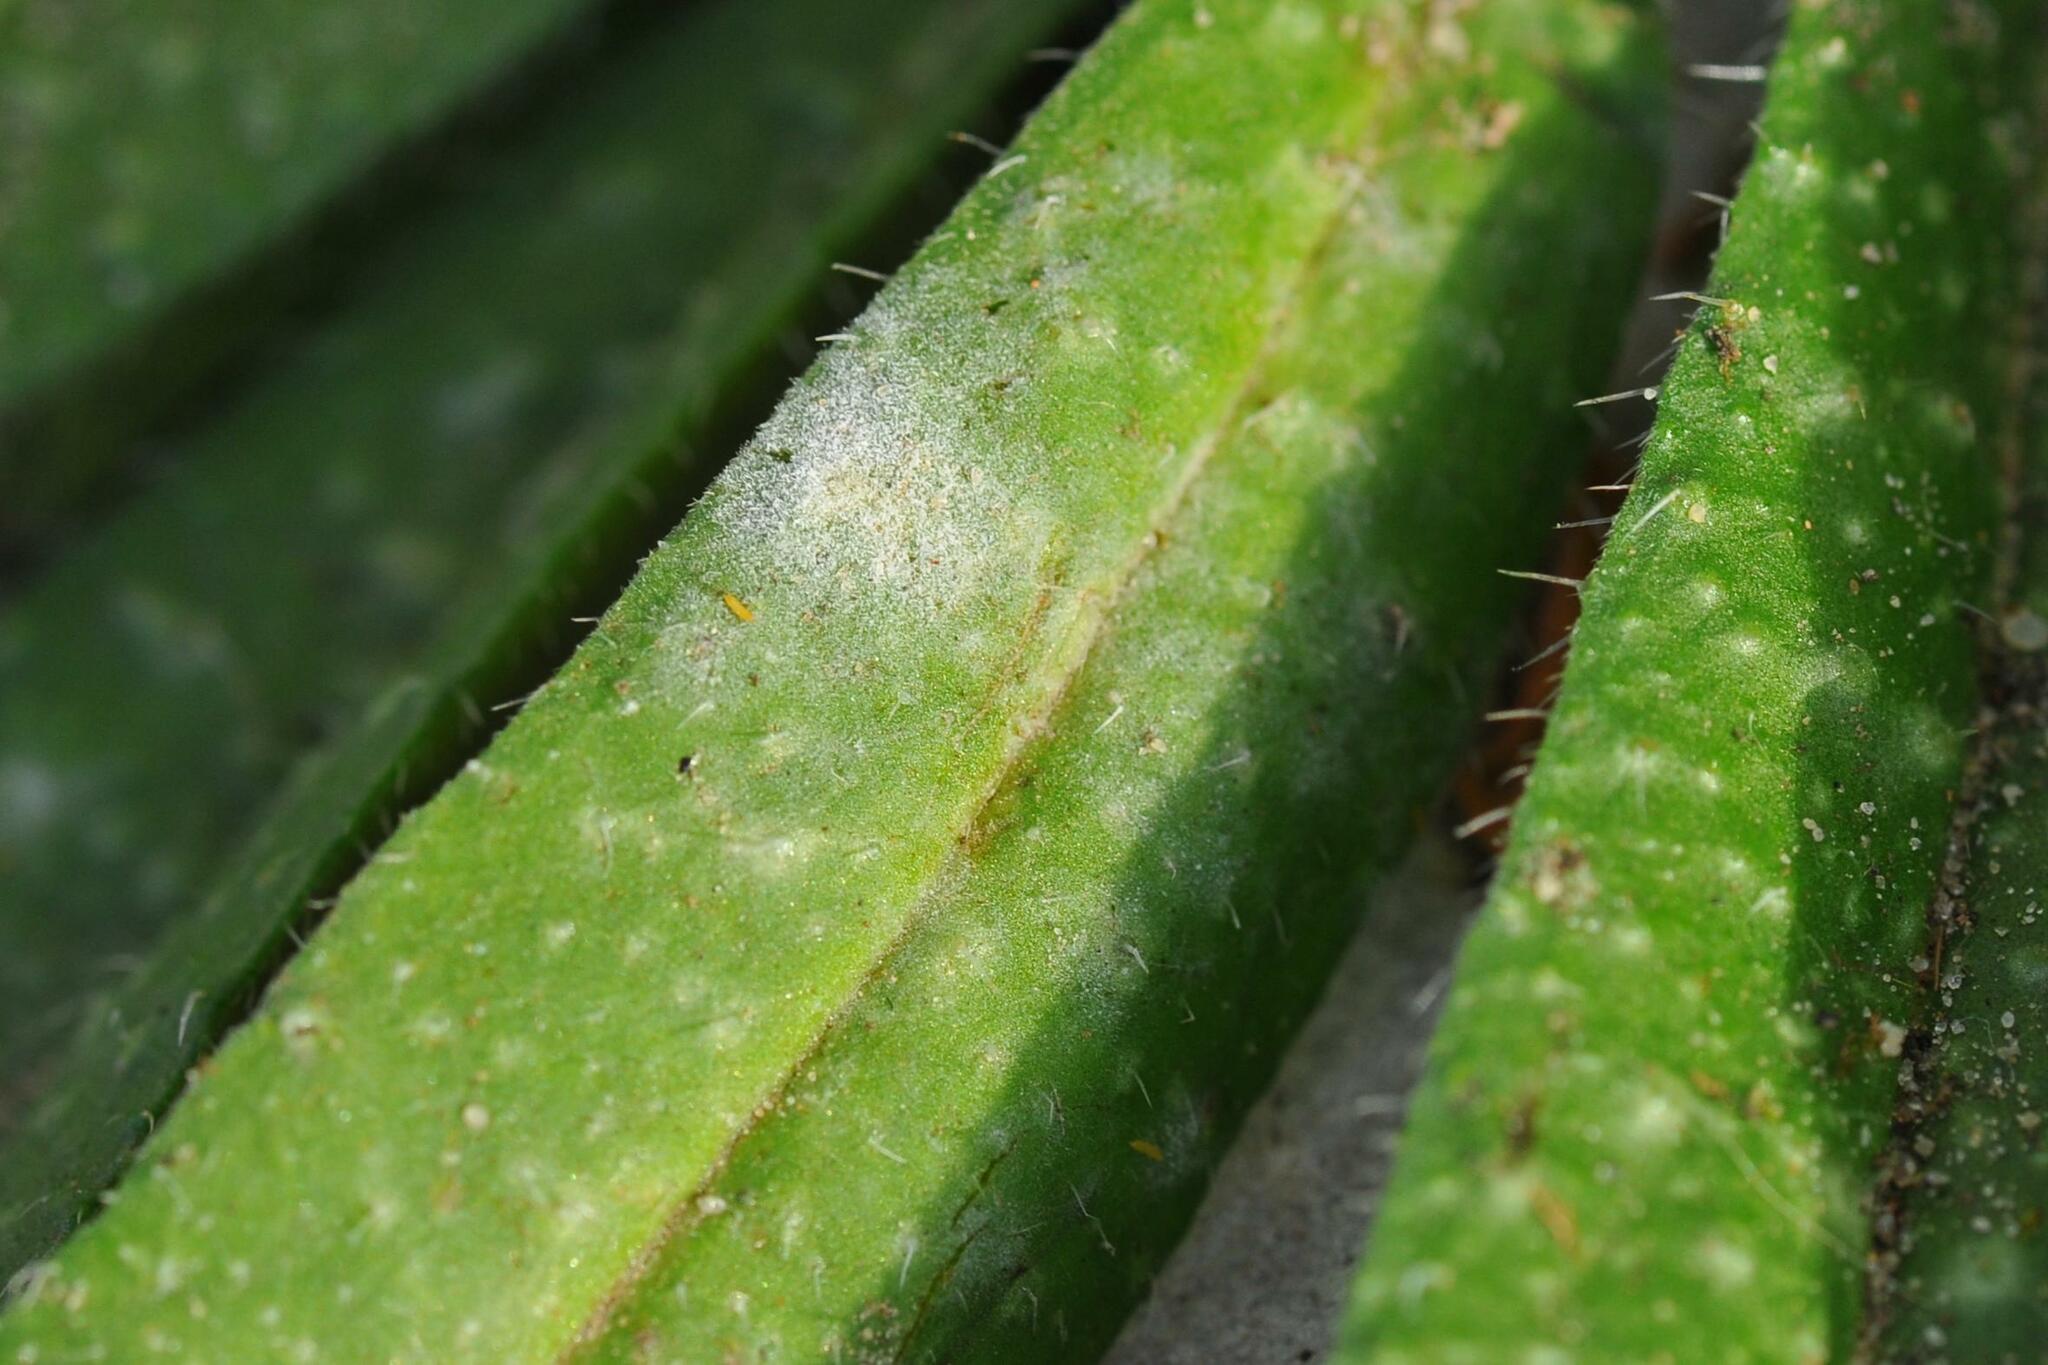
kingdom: Fungi
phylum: Ascomycota
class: Leotiomycetes
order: Helotiales
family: Erysiphaceae
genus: Golovinomyces
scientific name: Golovinomyces asperifolii
